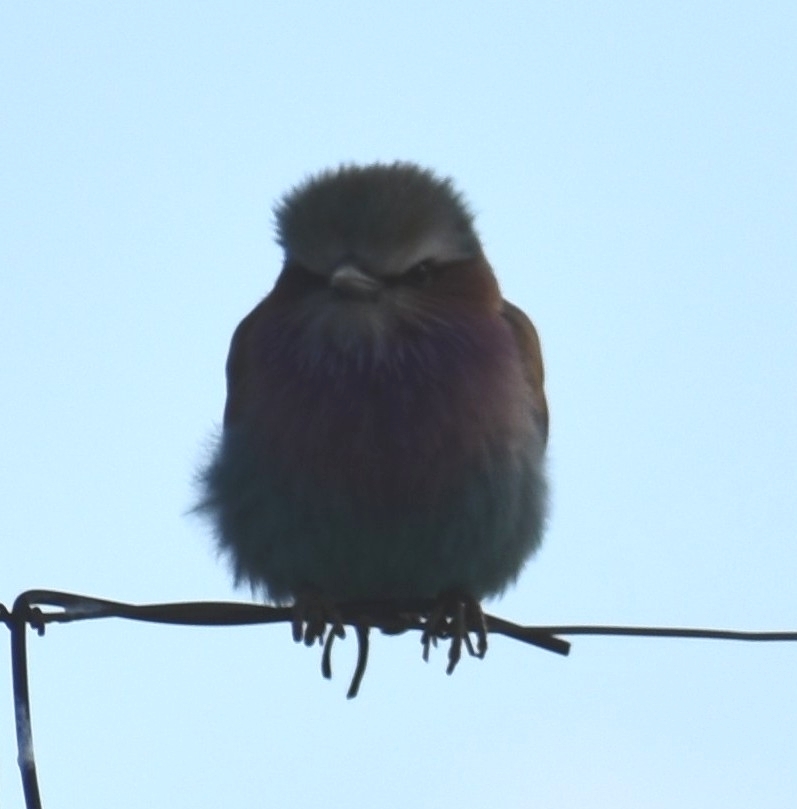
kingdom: Animalia
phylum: Chordata
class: Aves
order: Coraciiformes
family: Coraciidae
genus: Coracias
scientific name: Coracias caudatus
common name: Lilac-breasted roller
